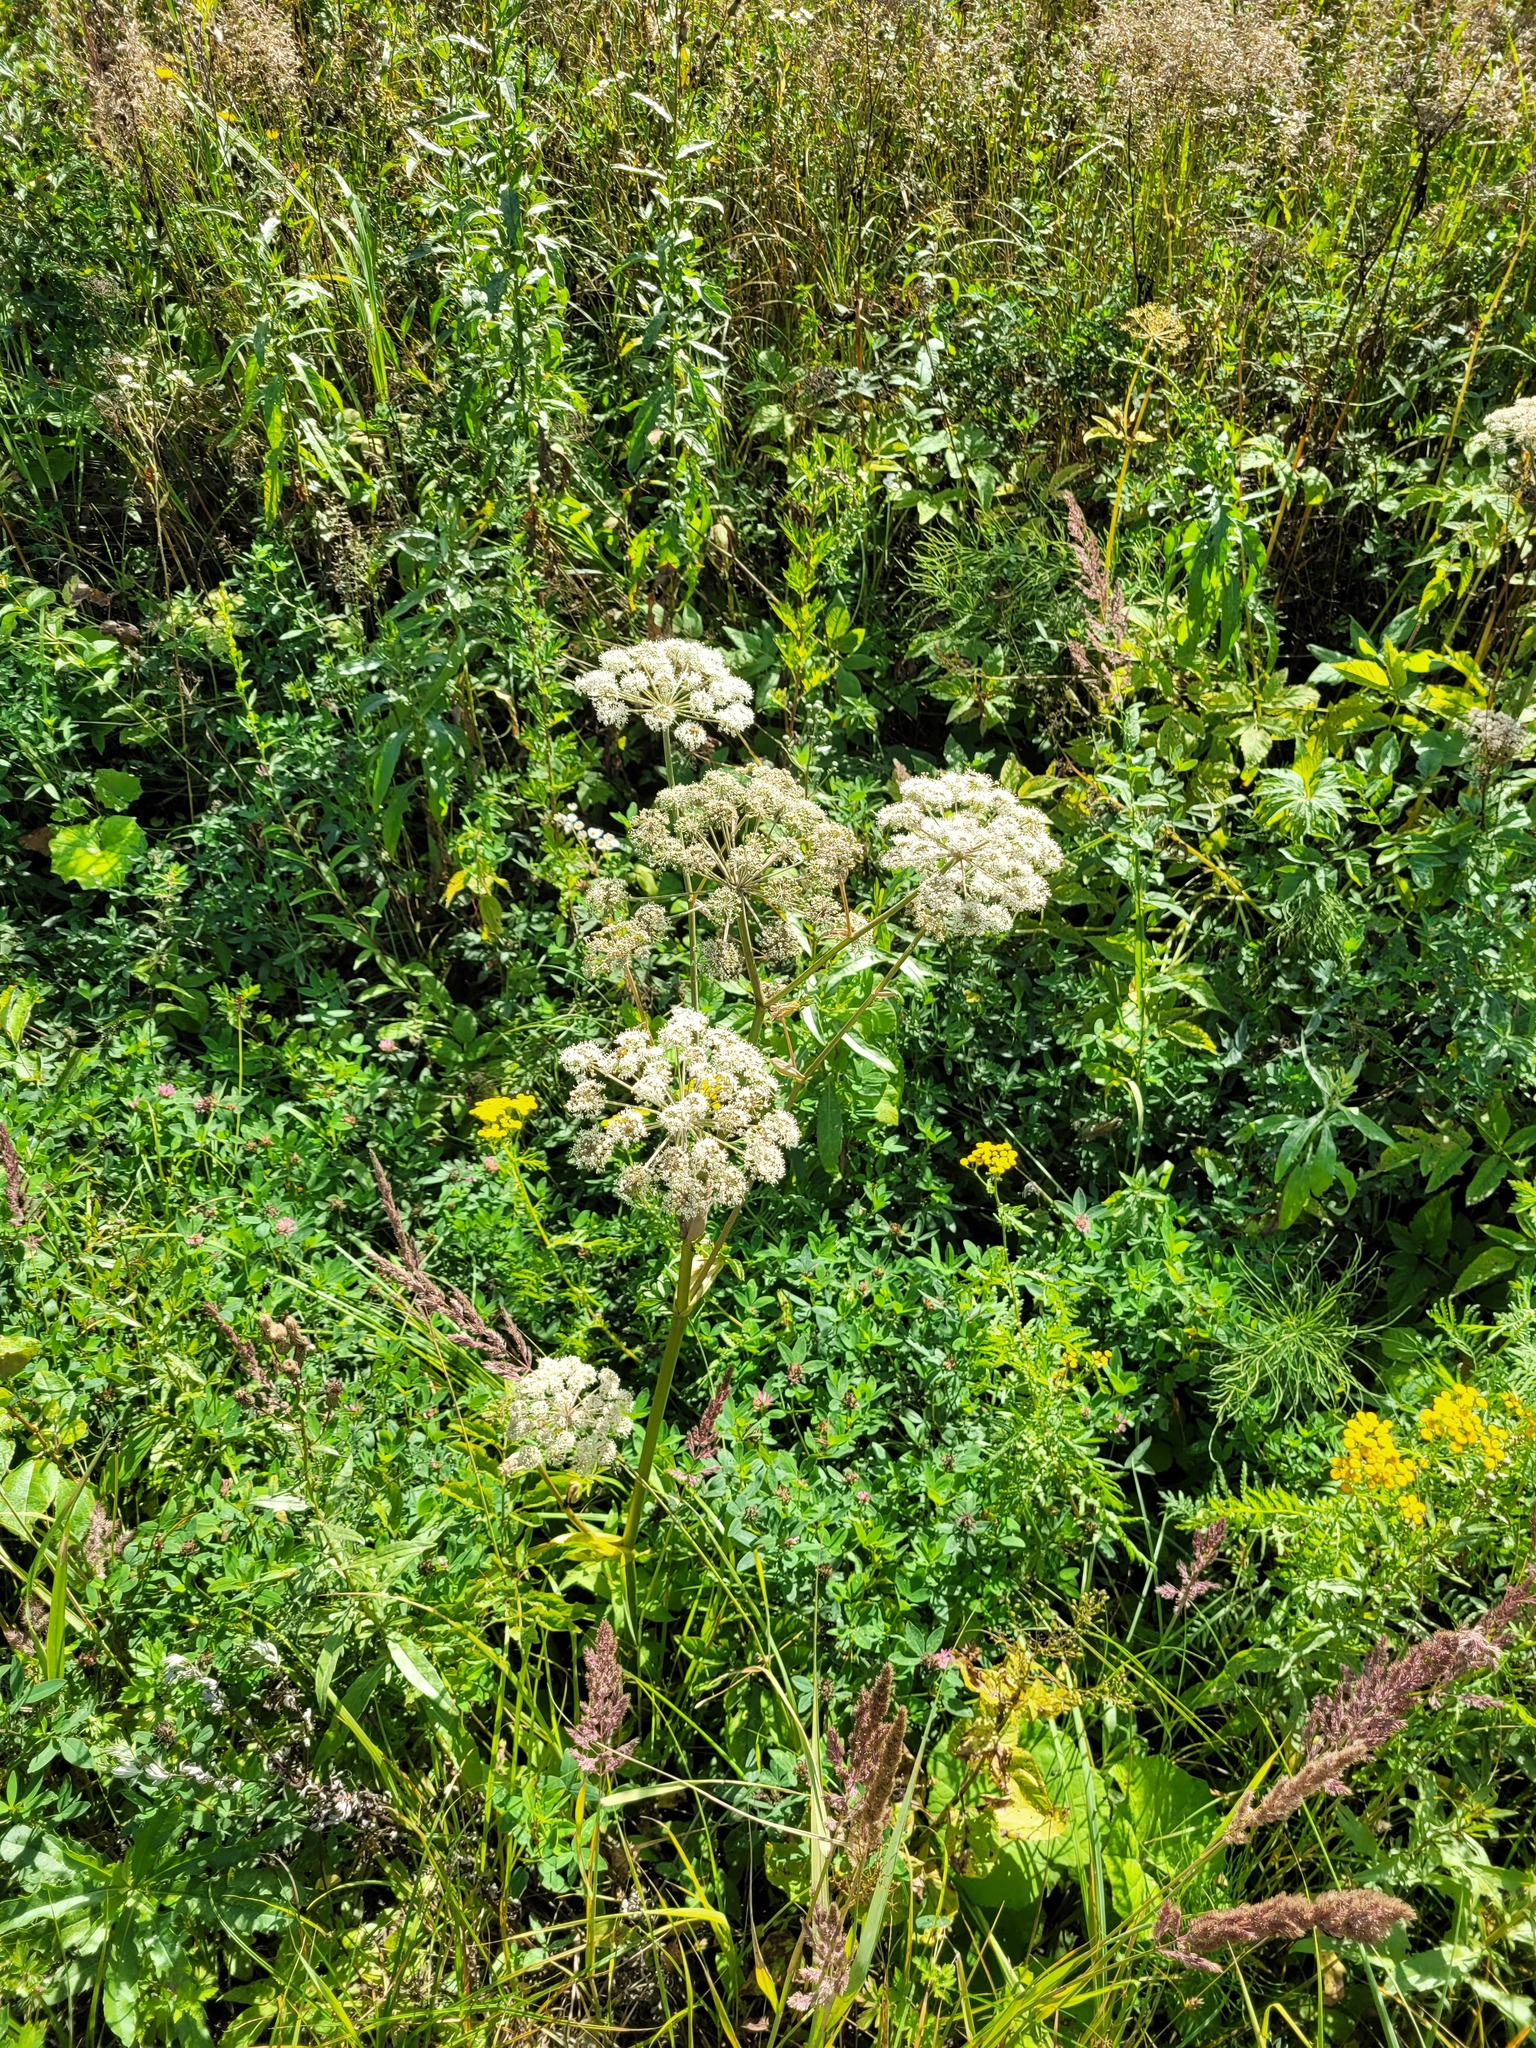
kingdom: Plantae
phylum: Tracheophyta
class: Magnoliopsida
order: Apiales
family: Apiaceae
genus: Angelica
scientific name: Angelica sylvestris
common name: Wild angelica
